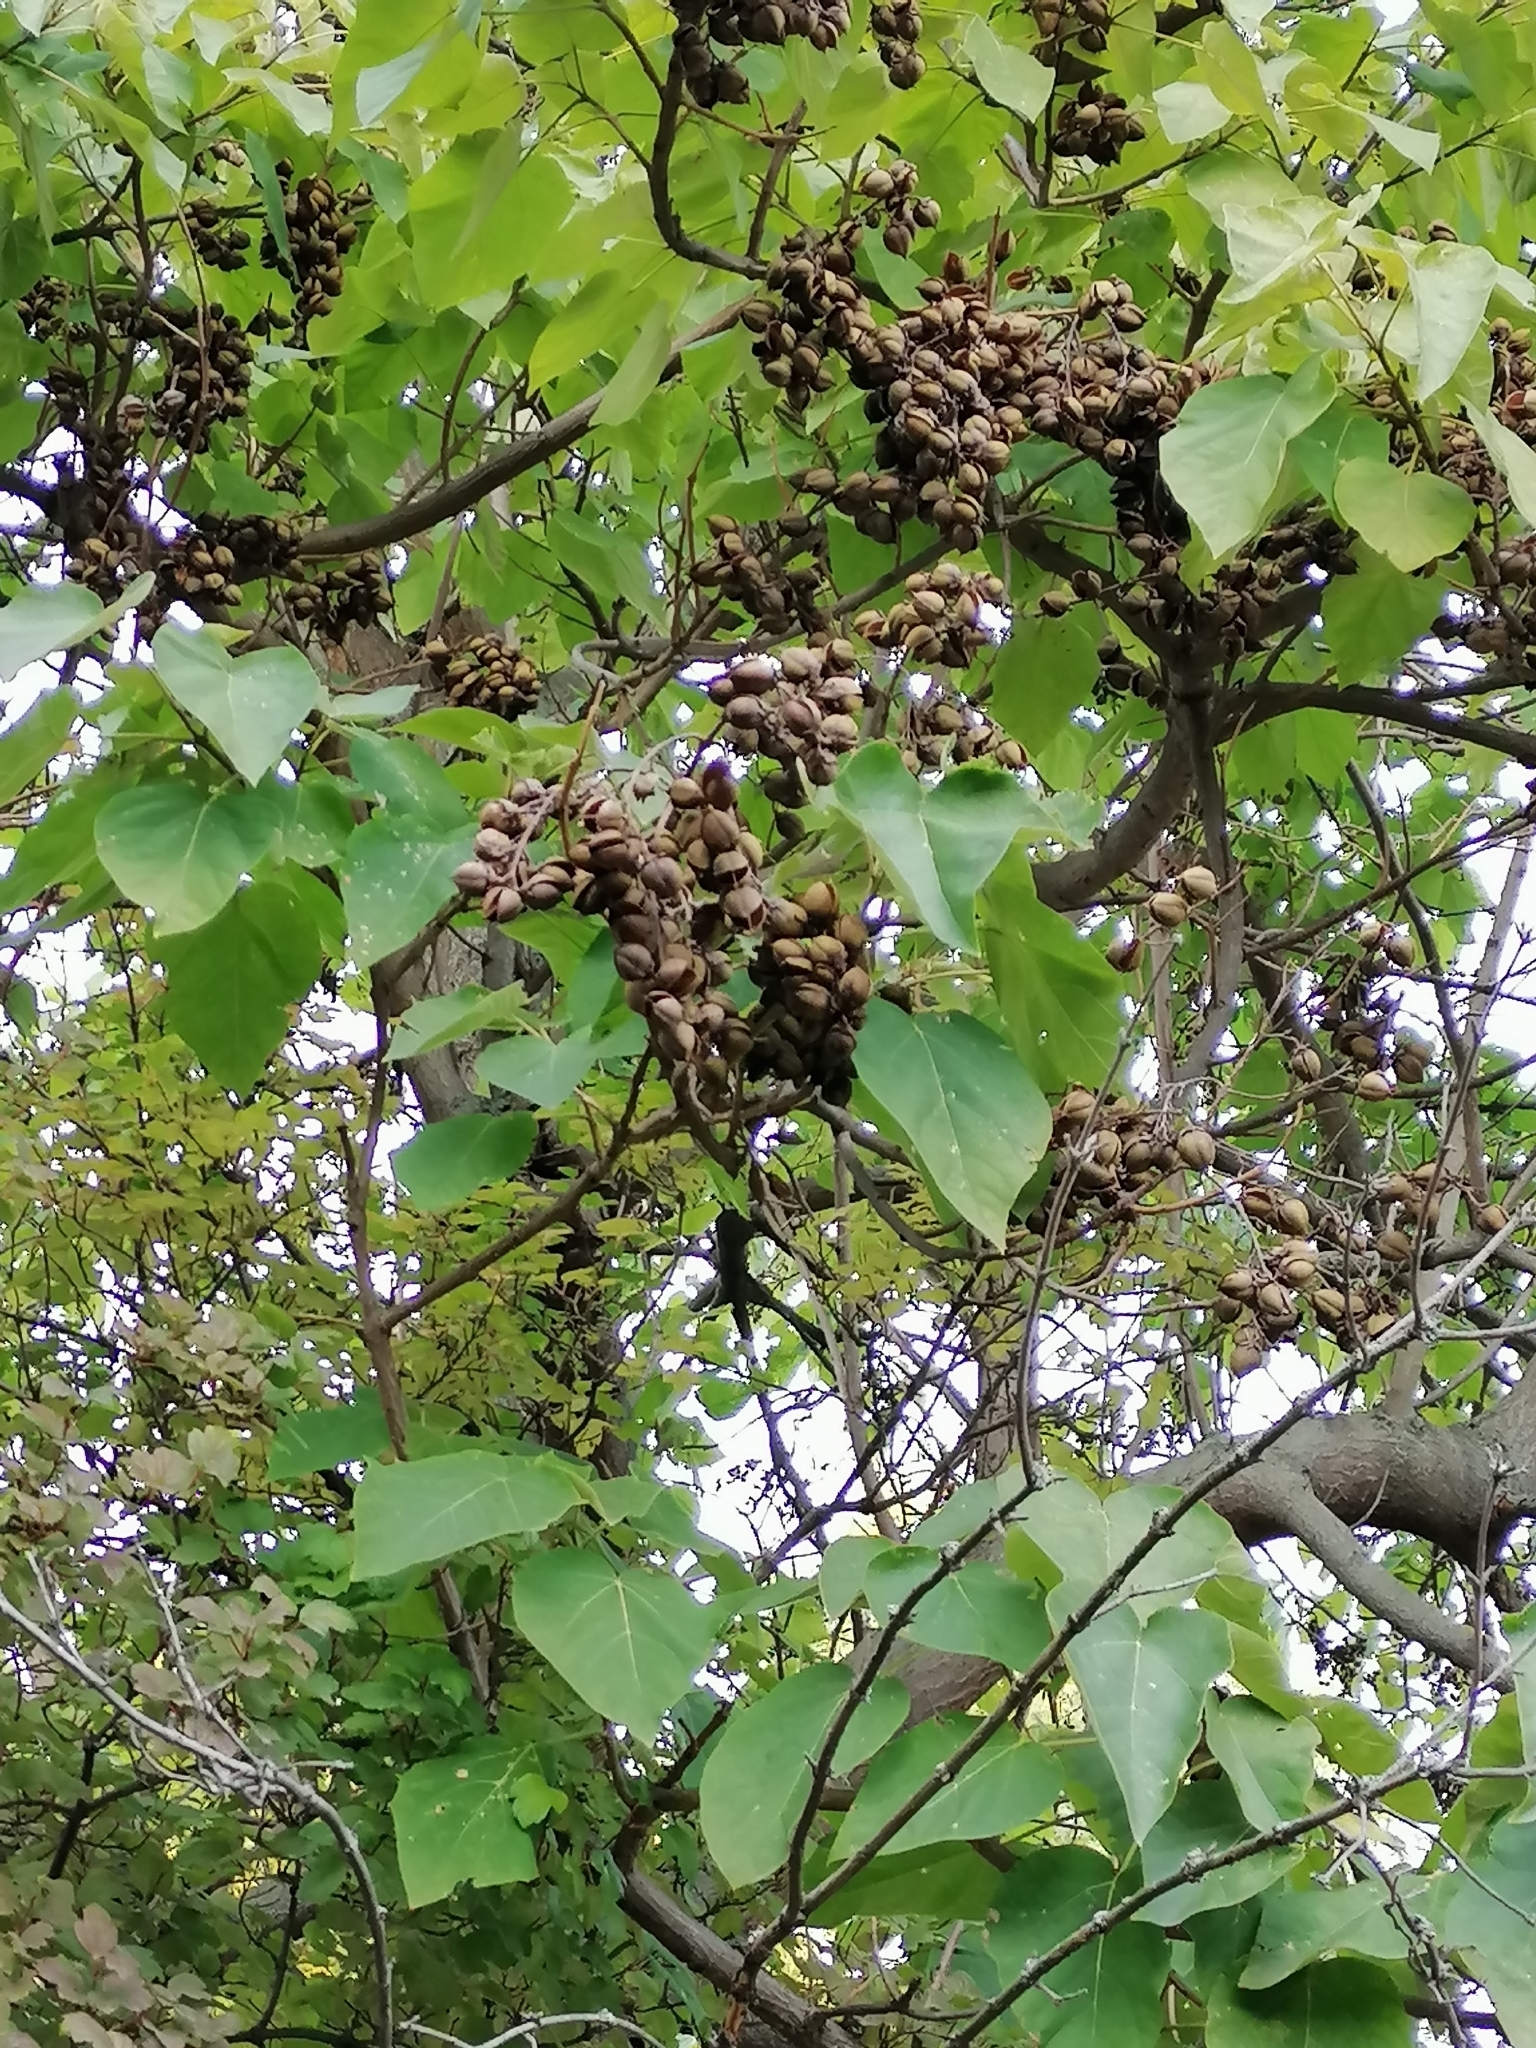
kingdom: Plantae
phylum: Tracheophyta
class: Magnoliopsida
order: Lamiales
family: Paulowniaceae
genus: Paulownia
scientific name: Paulownia tomentosa
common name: Foxglove-tree
